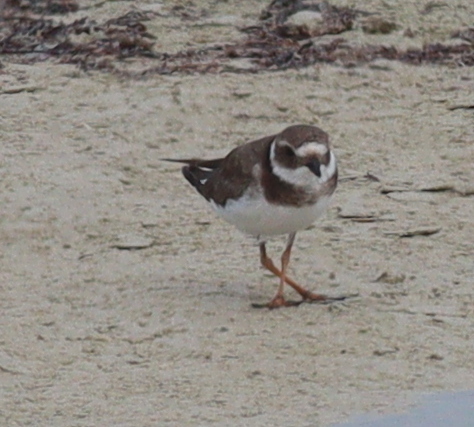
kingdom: Animalia
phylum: Chordata
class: Aves
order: Charadriiformes
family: Charadriidae
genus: Charadrius
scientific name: Charadrius hiaticula
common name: Common ringed plover
